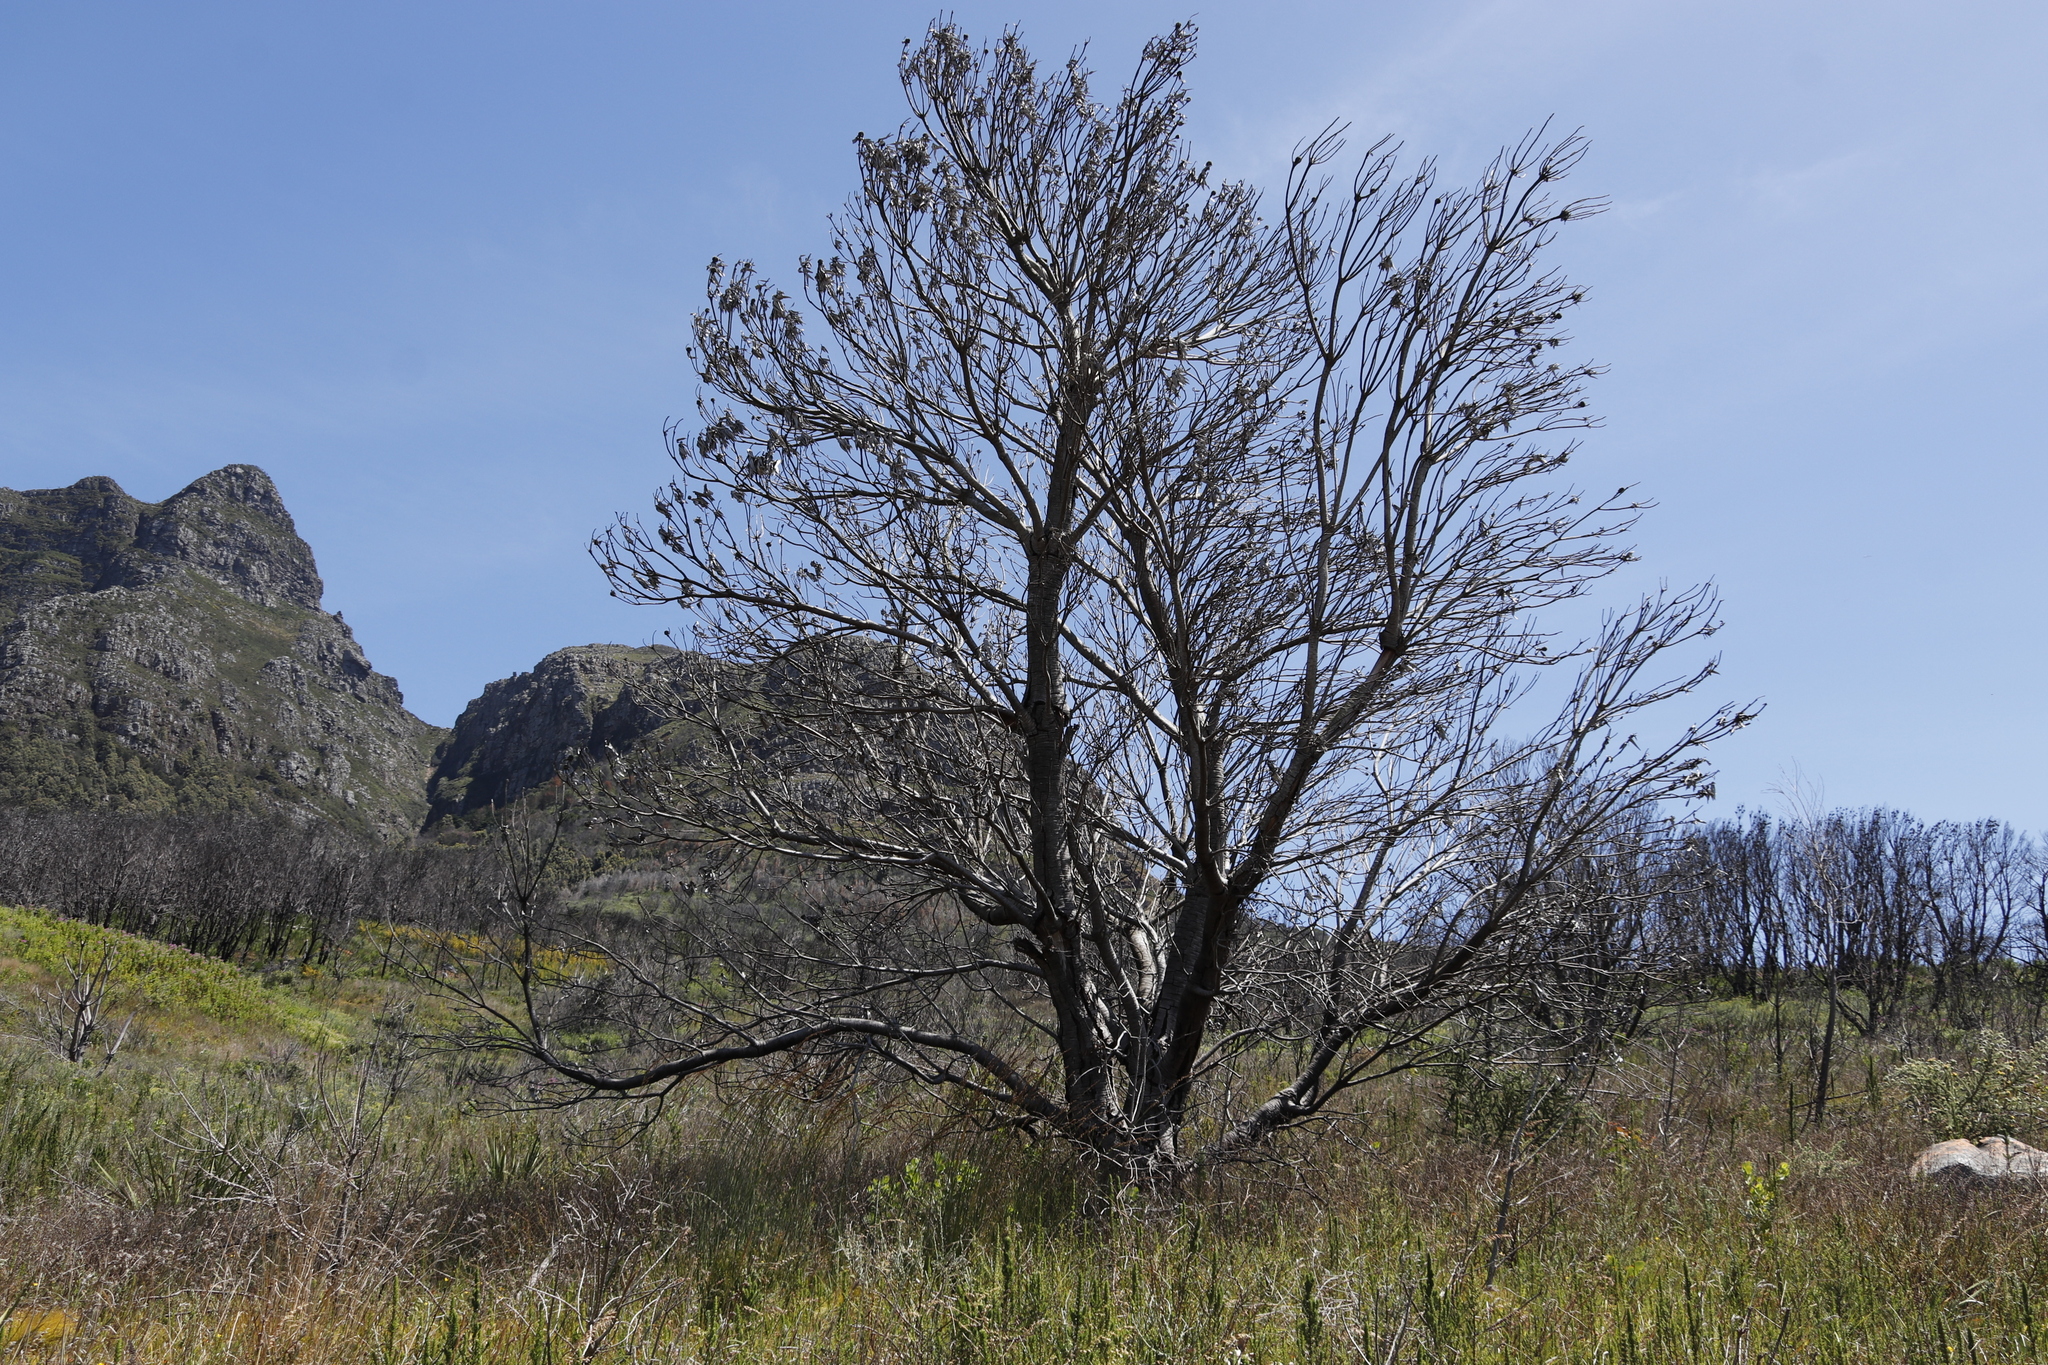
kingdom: Plantae
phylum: Tracheophyta
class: Magnoliopsida
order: Proteales
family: Proteaceae
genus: Leucadendron
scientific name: Leucadendron argenteum
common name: Cape silver tree
